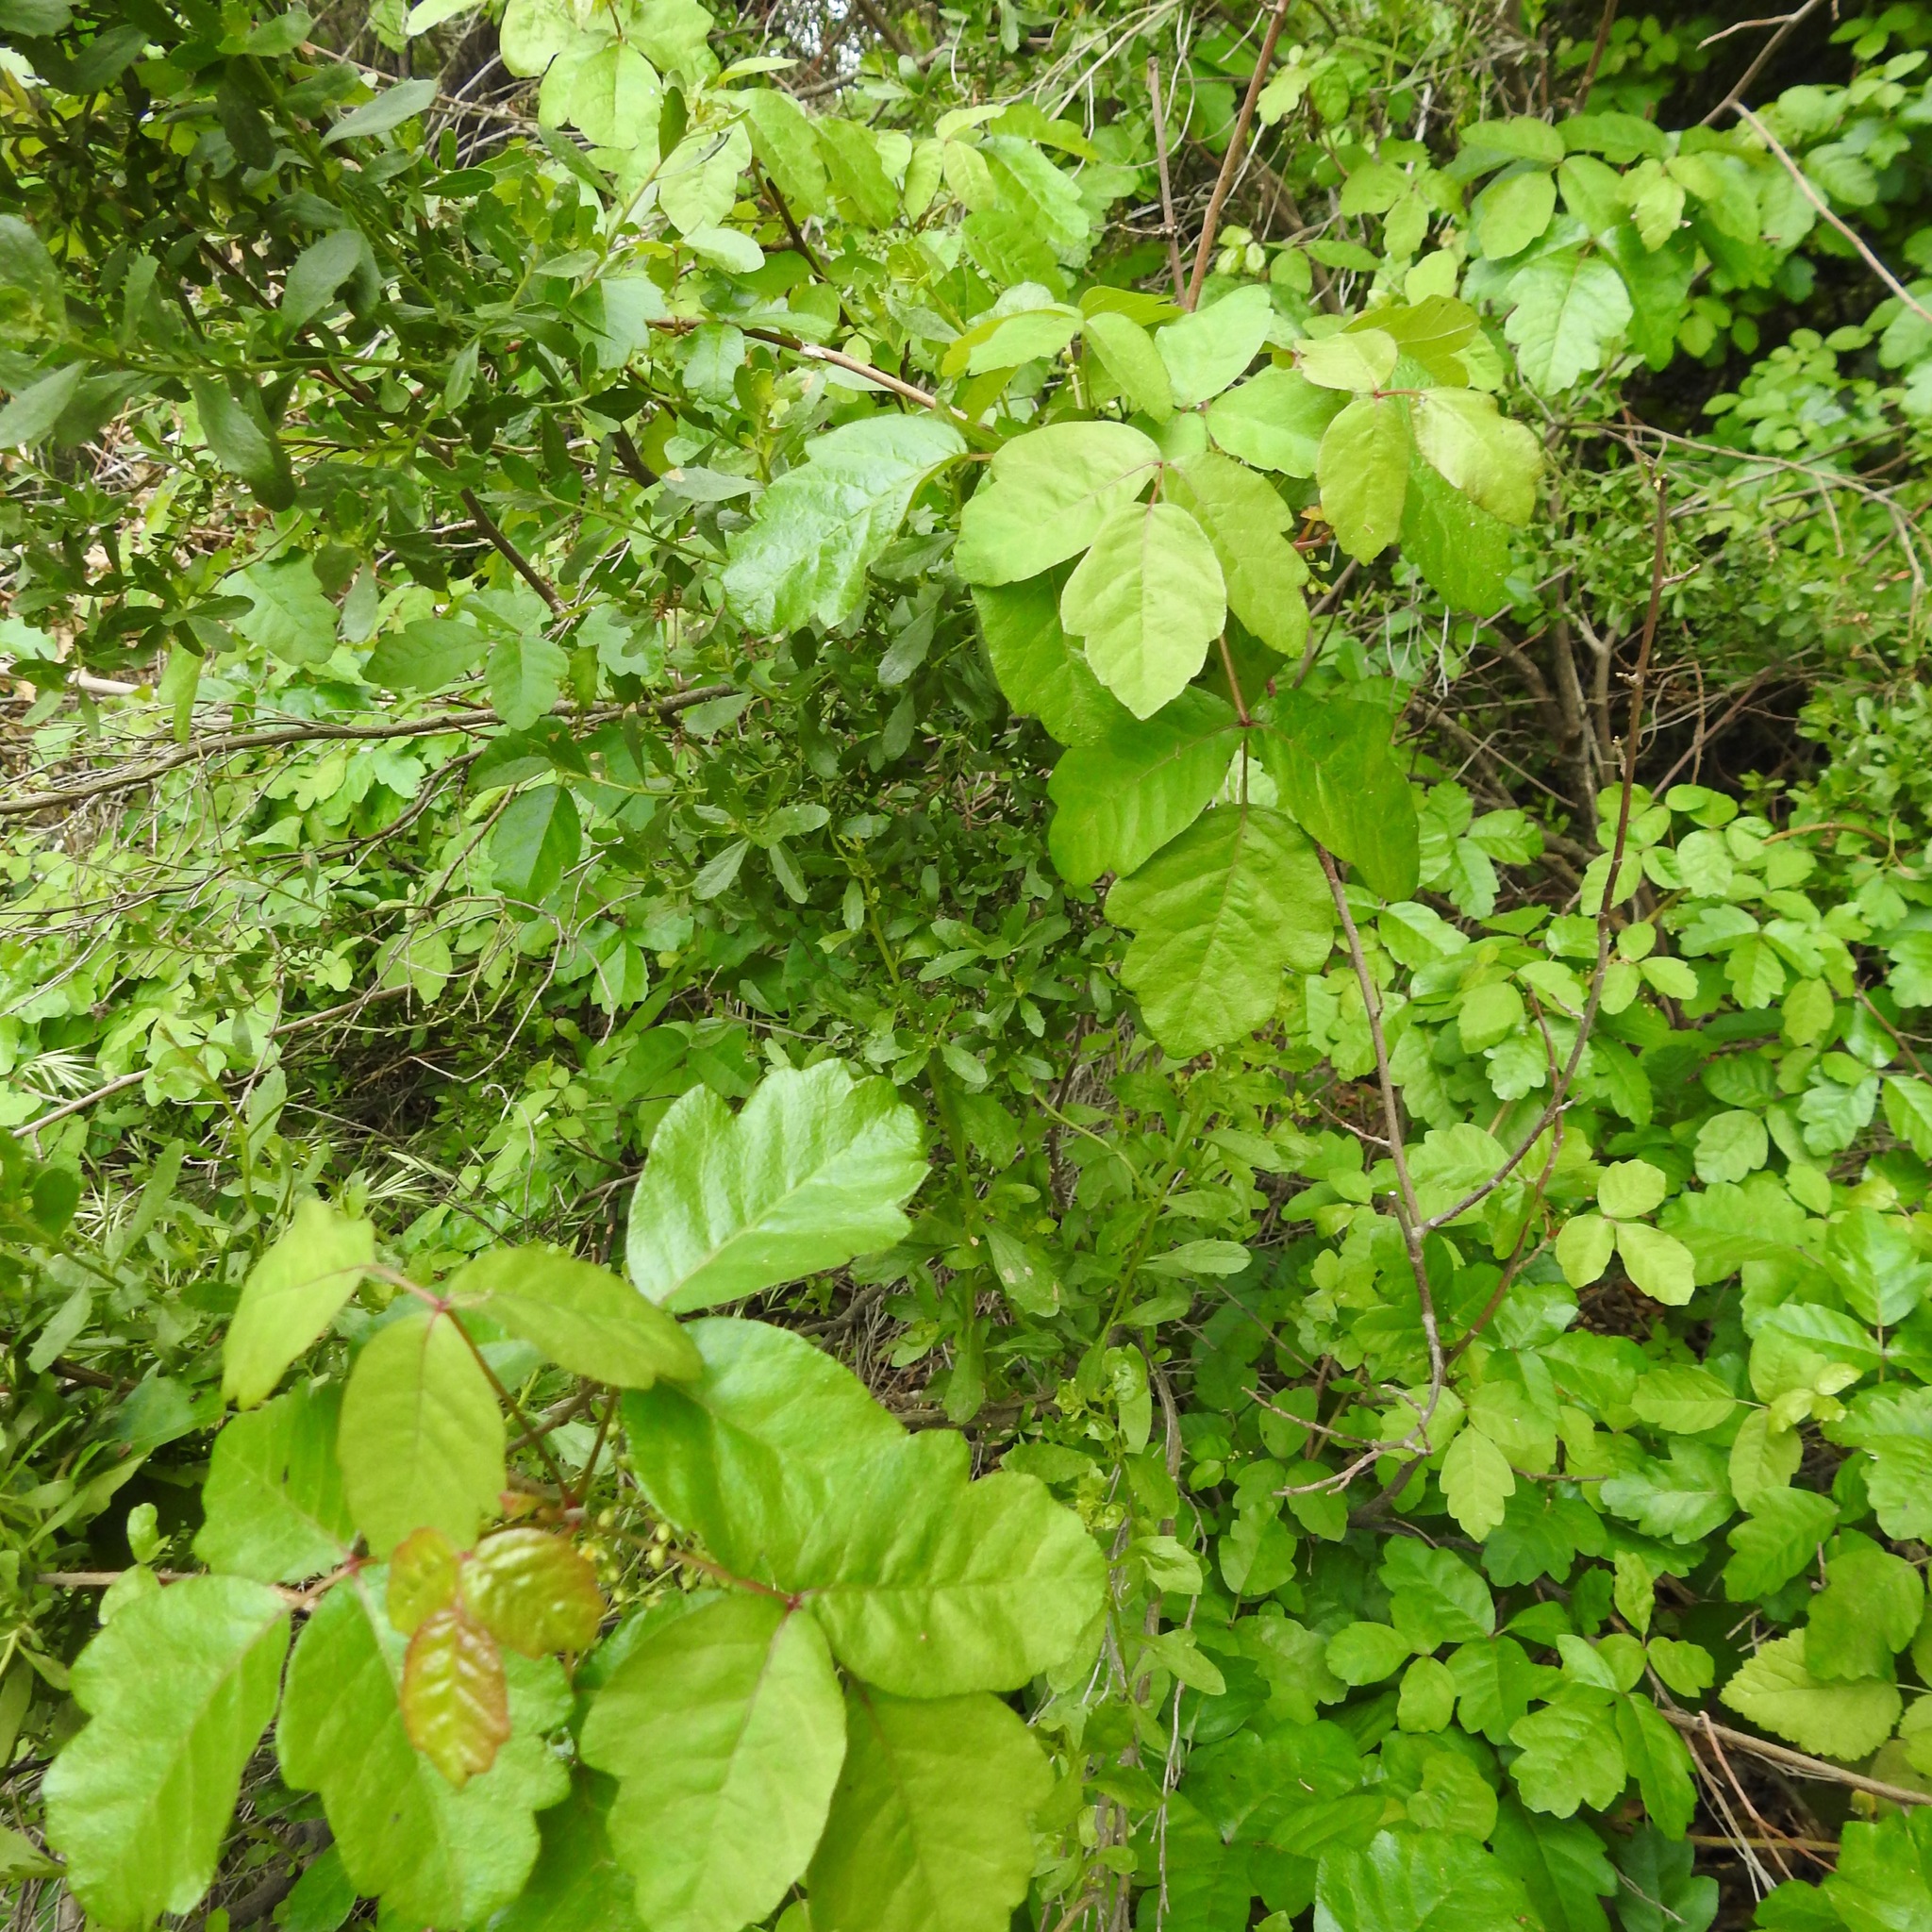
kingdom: Plantae
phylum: Tracheophyta
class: Magnoliopsida
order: Sapindales
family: Anacardiaceae
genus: Toxicodendron
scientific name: Toxicodendron diversilobum
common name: Pacific poison-oak
